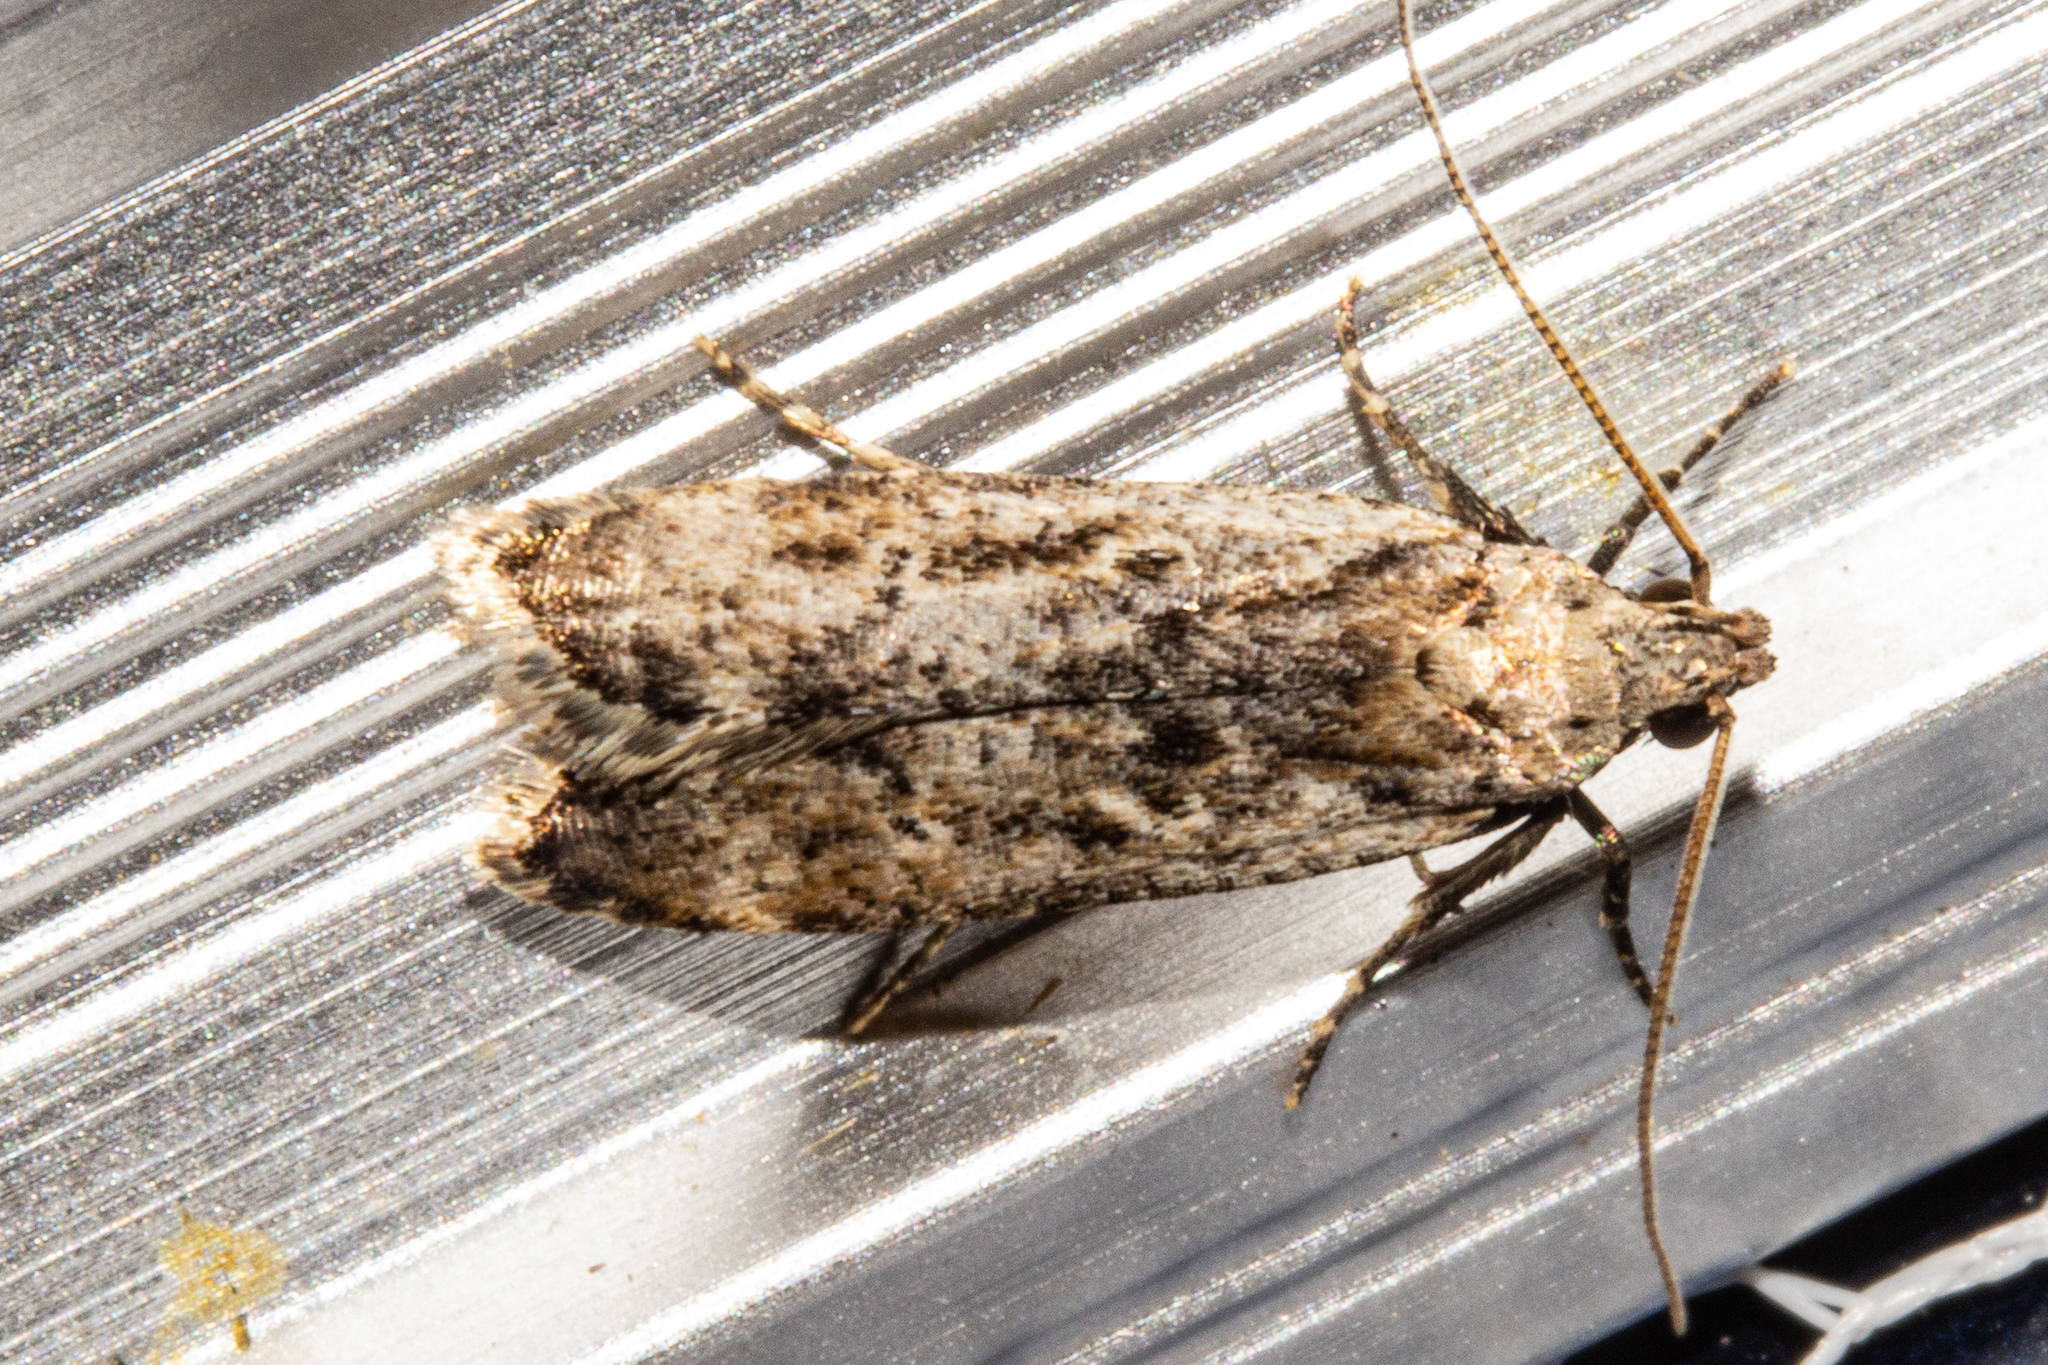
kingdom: Animalia
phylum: Arthropoda
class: Insecta
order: Lepidoptera
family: Gelechiidae
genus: Anisoplaca
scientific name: Anisoplaca achyrota
